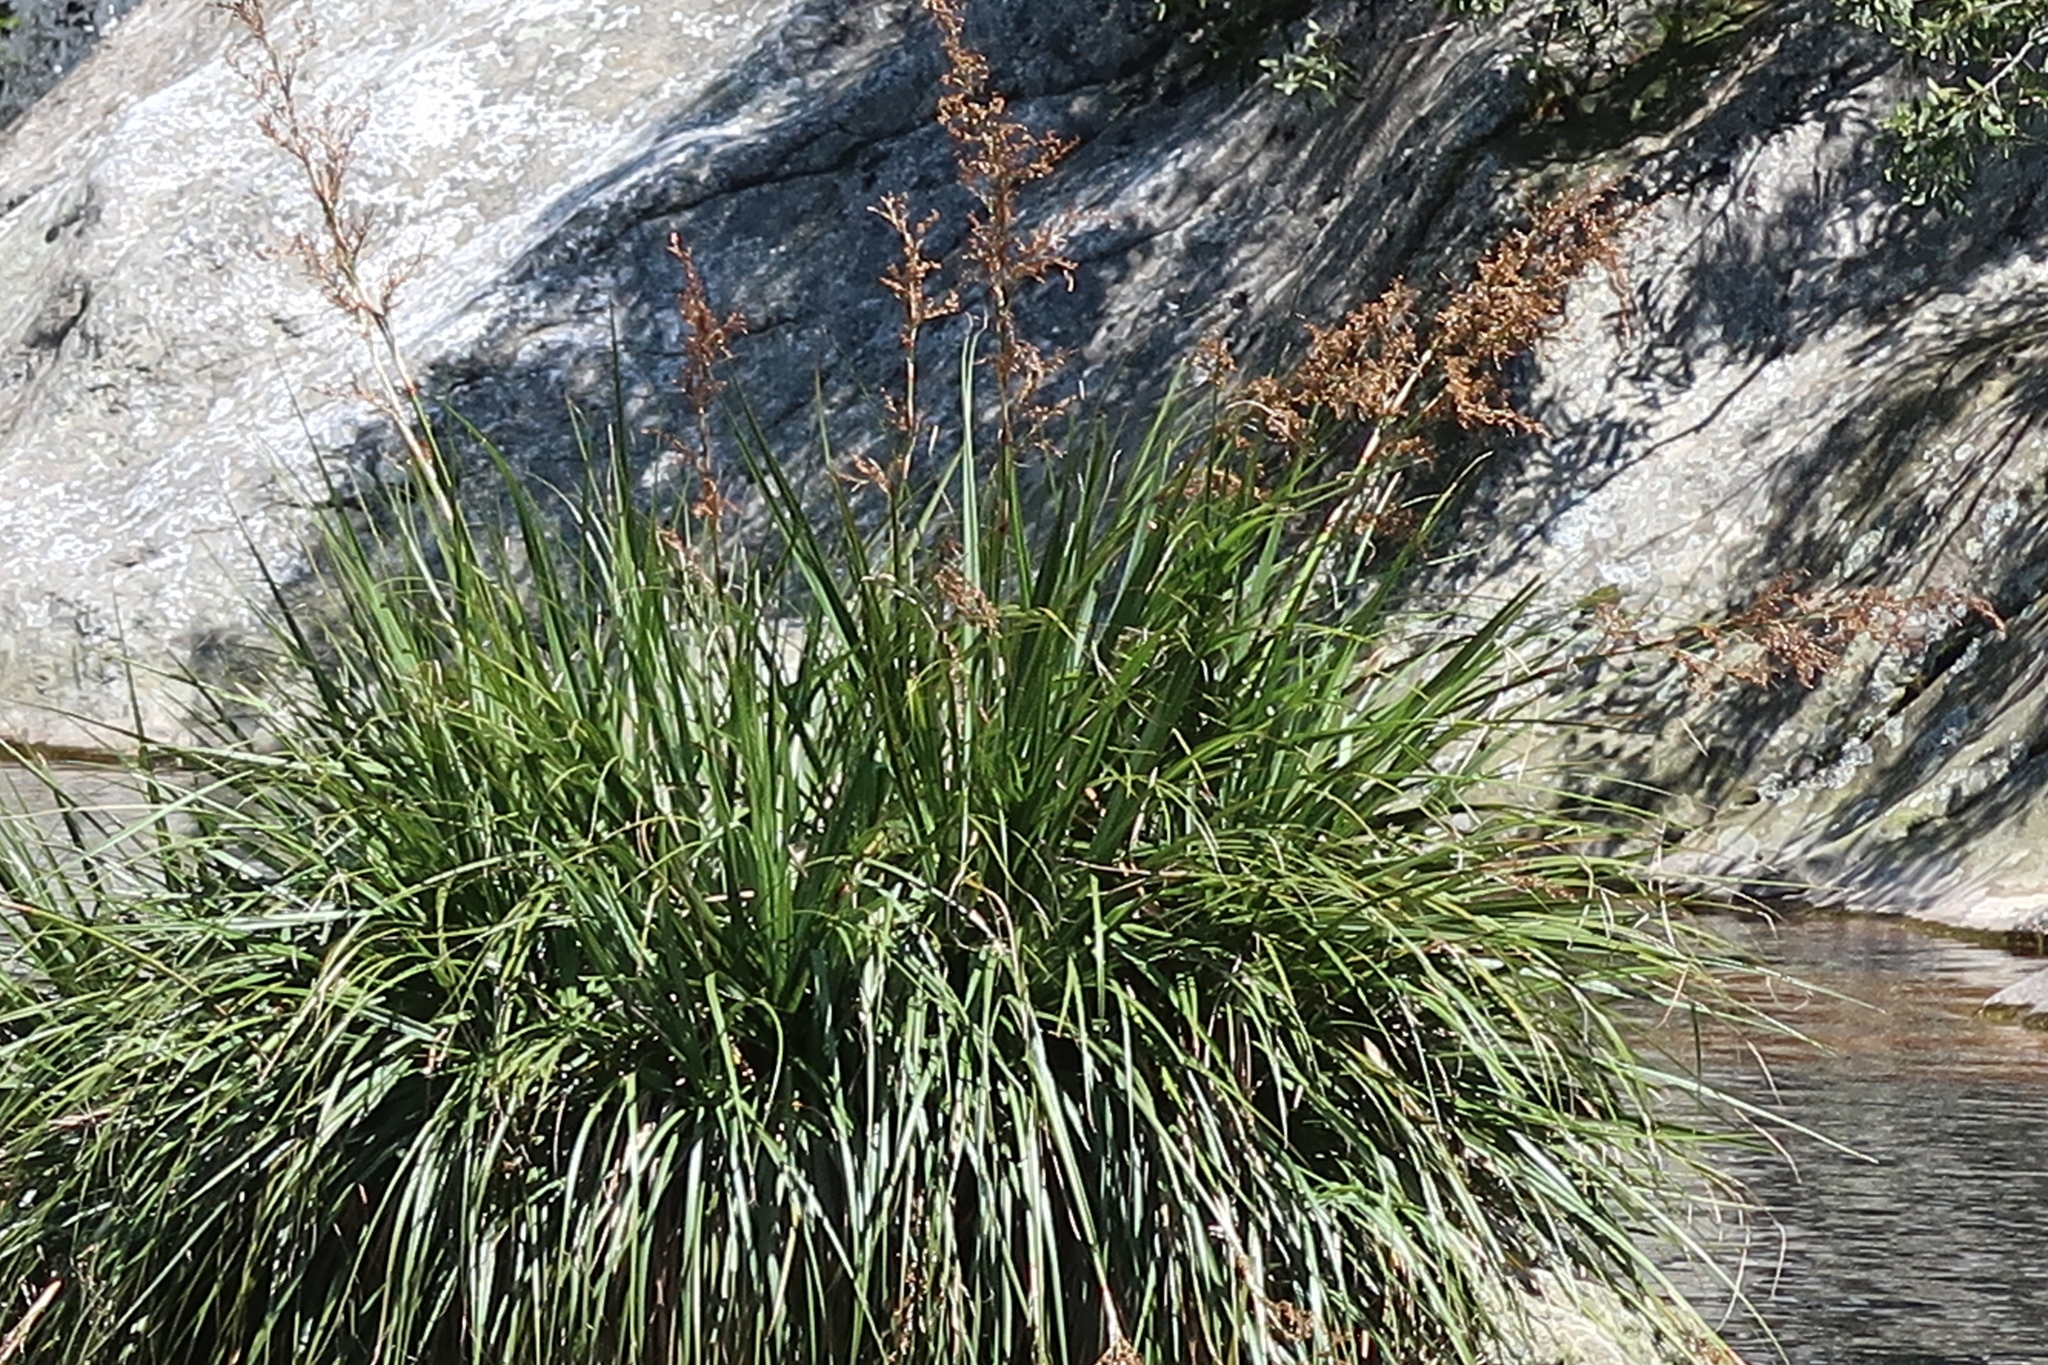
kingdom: Plantae
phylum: Tracheophyta
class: Liliopsida
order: Poales
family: Cyperaceae
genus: Cladium
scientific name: Cladium mariscus
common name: Great fen-sedge
